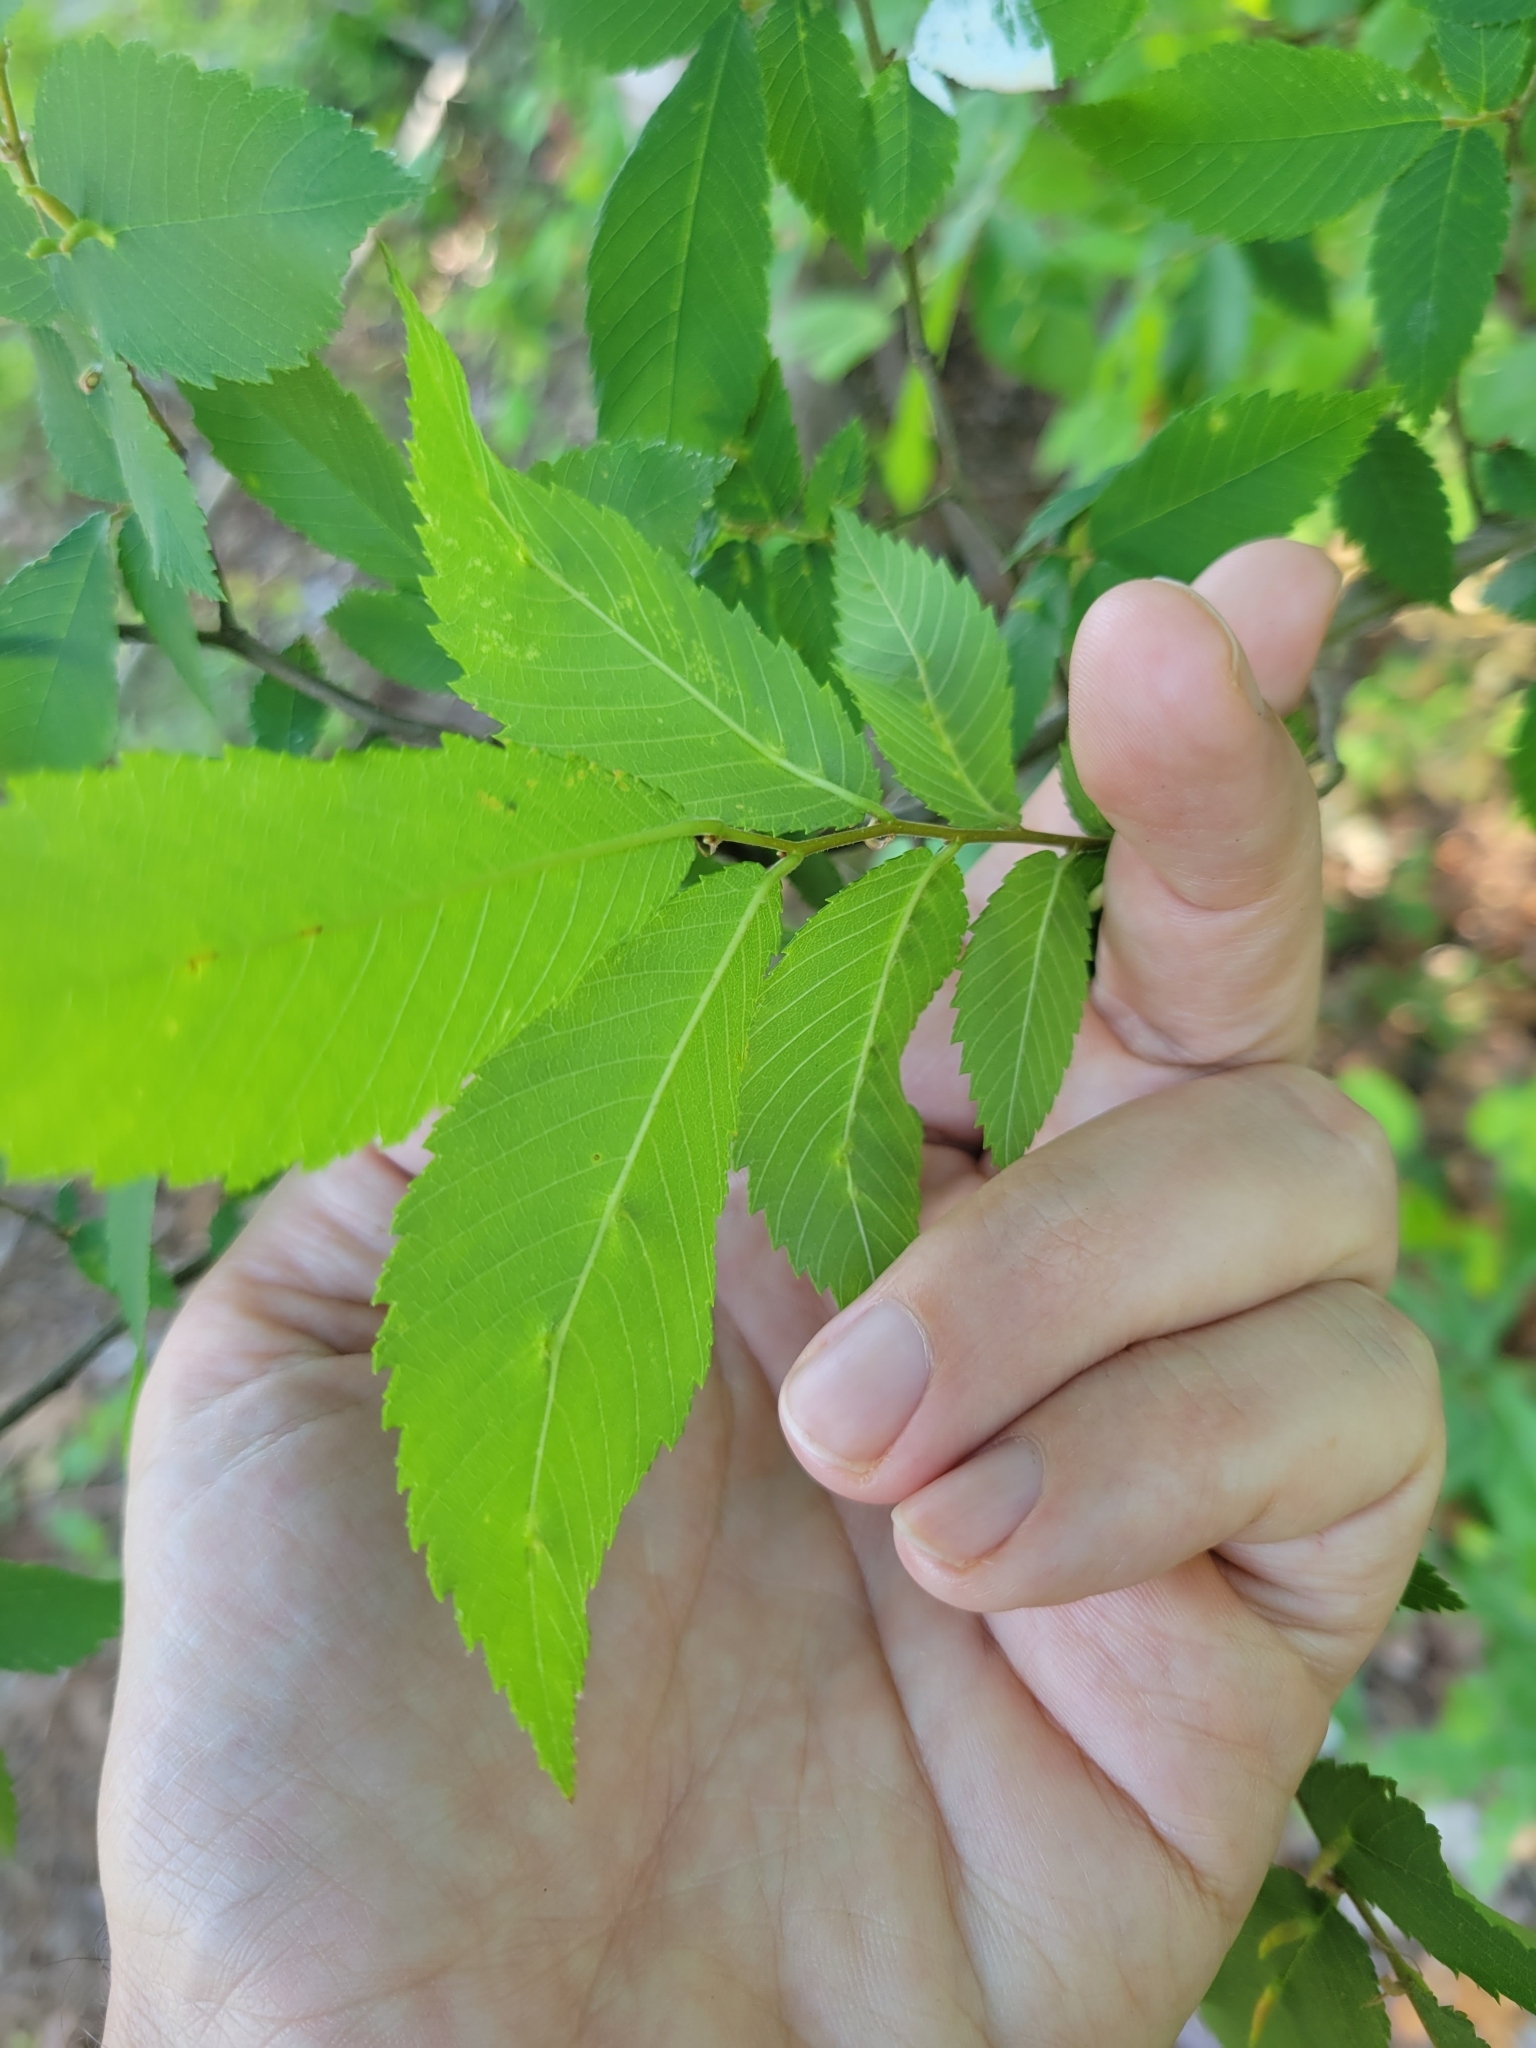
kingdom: Animalia
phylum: Arthropoda
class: Arachnida
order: Trombidiformes
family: Eriophyidae
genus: Aceria
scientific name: Aceria
